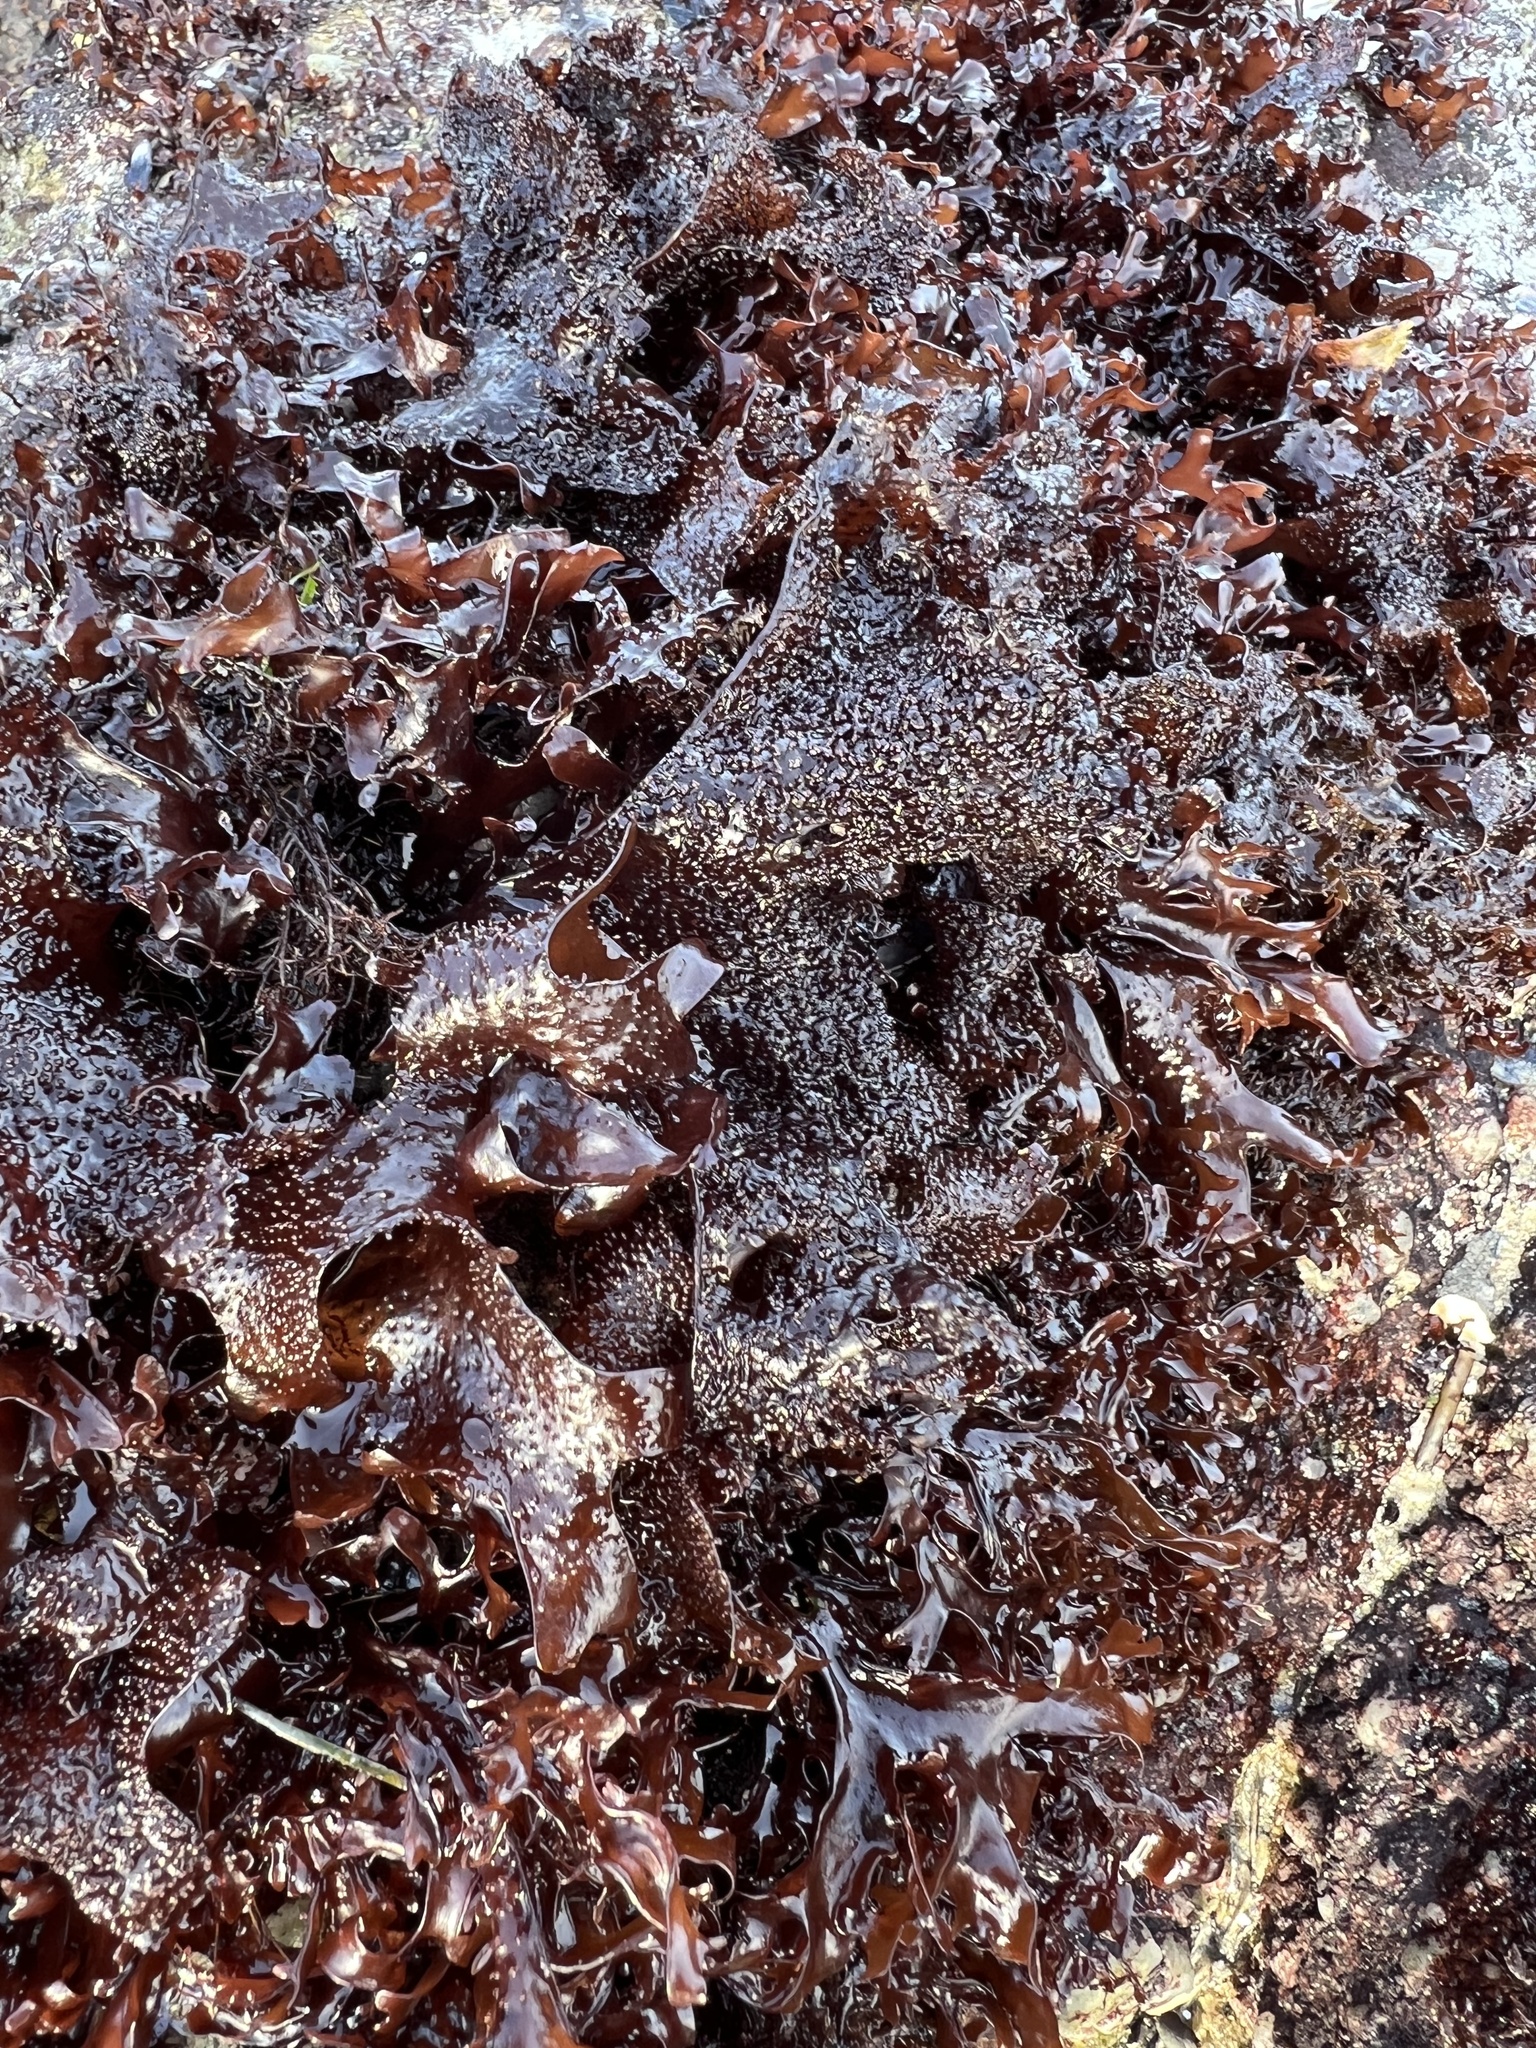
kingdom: Plantae
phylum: Rhodophyta
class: Florideophyceae
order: Gigartinales
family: Phyllophoraceae
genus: Mastocarpus
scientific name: Mastocarpus papillatus
